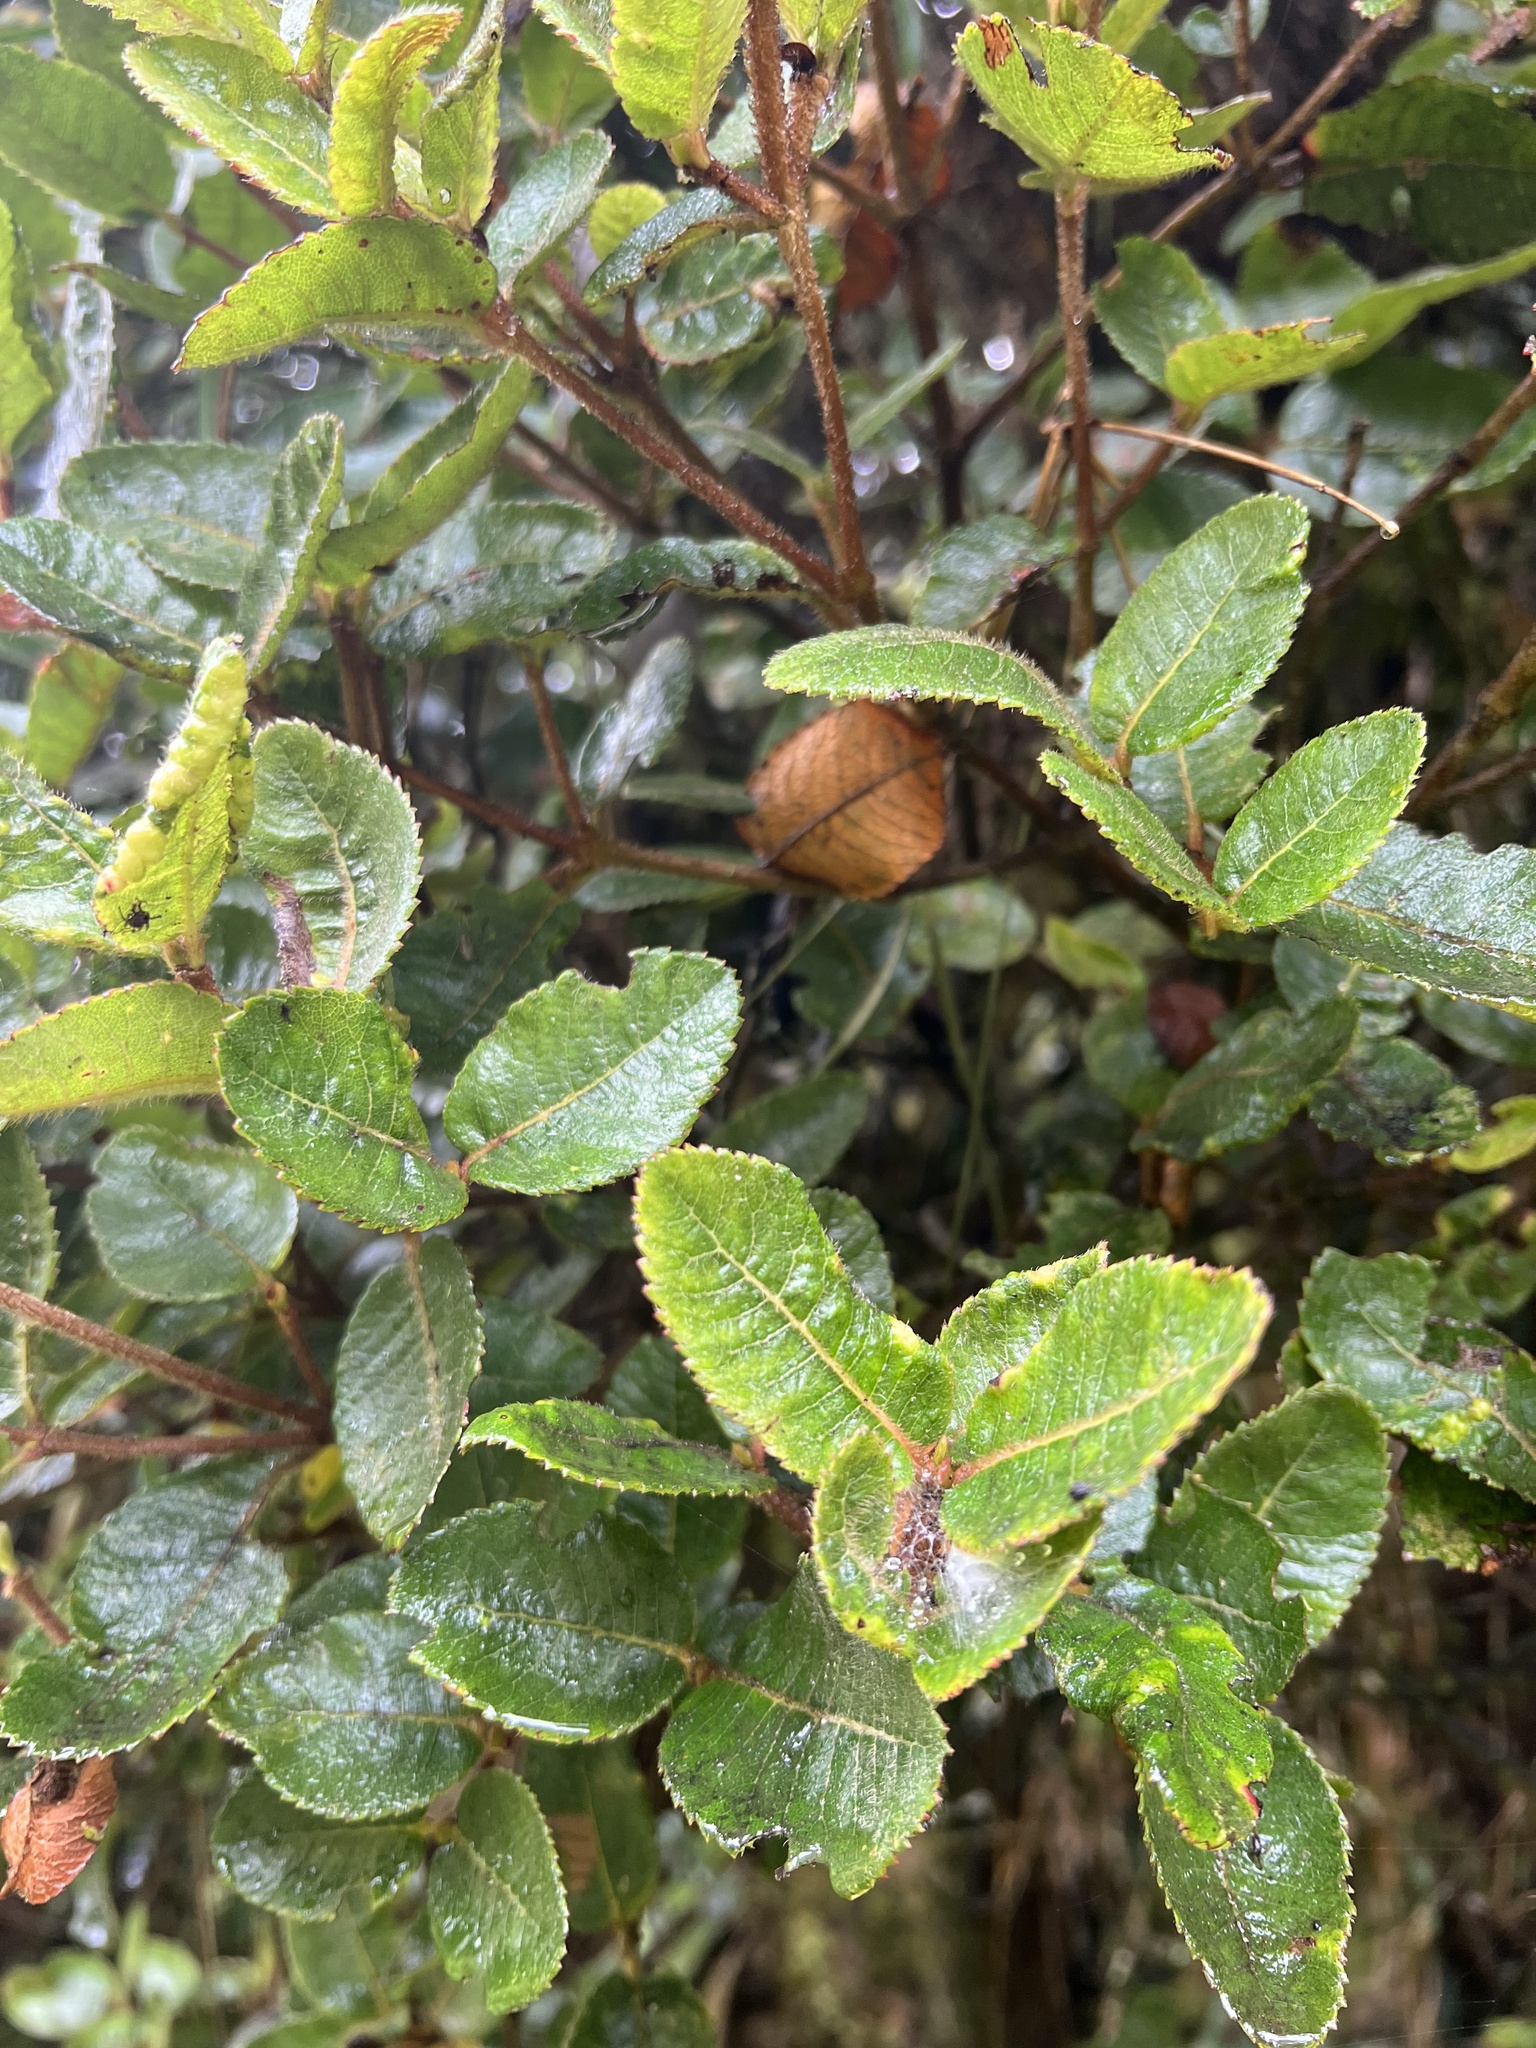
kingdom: Plantae
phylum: Tracheophyta
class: Magnoliopsida
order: Oxalidales
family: Cunoniaceae
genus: Weinmannia
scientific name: Weinmannia rollottii
